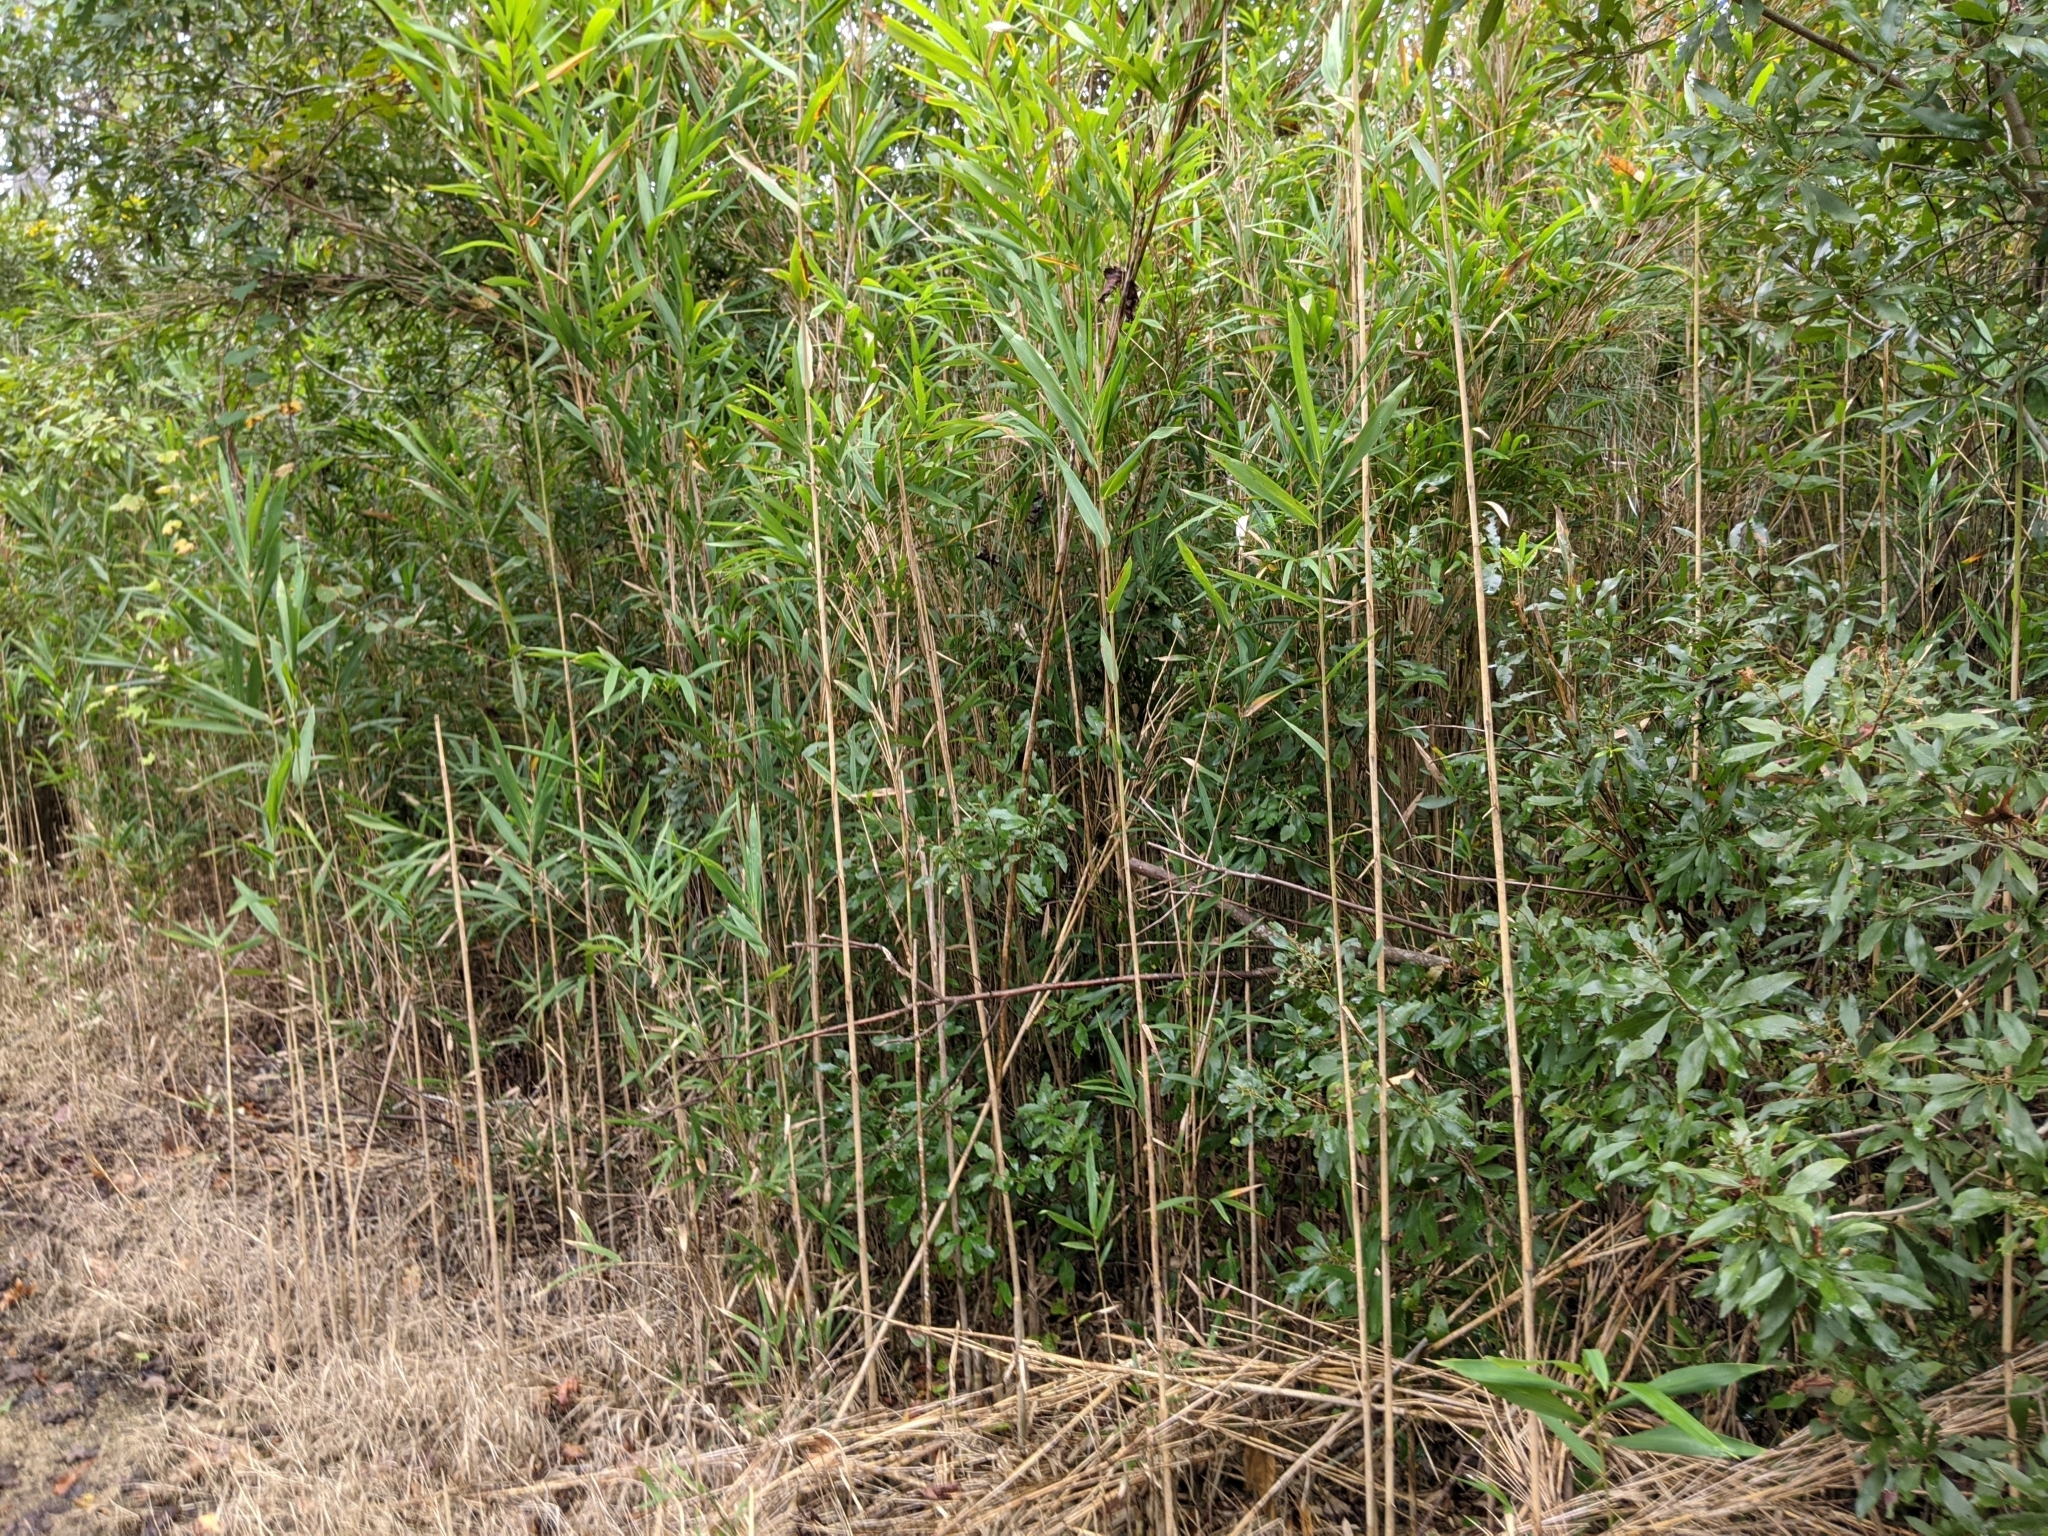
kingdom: Plantae
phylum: Tracheophyta
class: Liliopsida
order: Poales
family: Poaceae
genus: Arundinaria
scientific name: Arundinaria gigantea
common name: Giant cane
